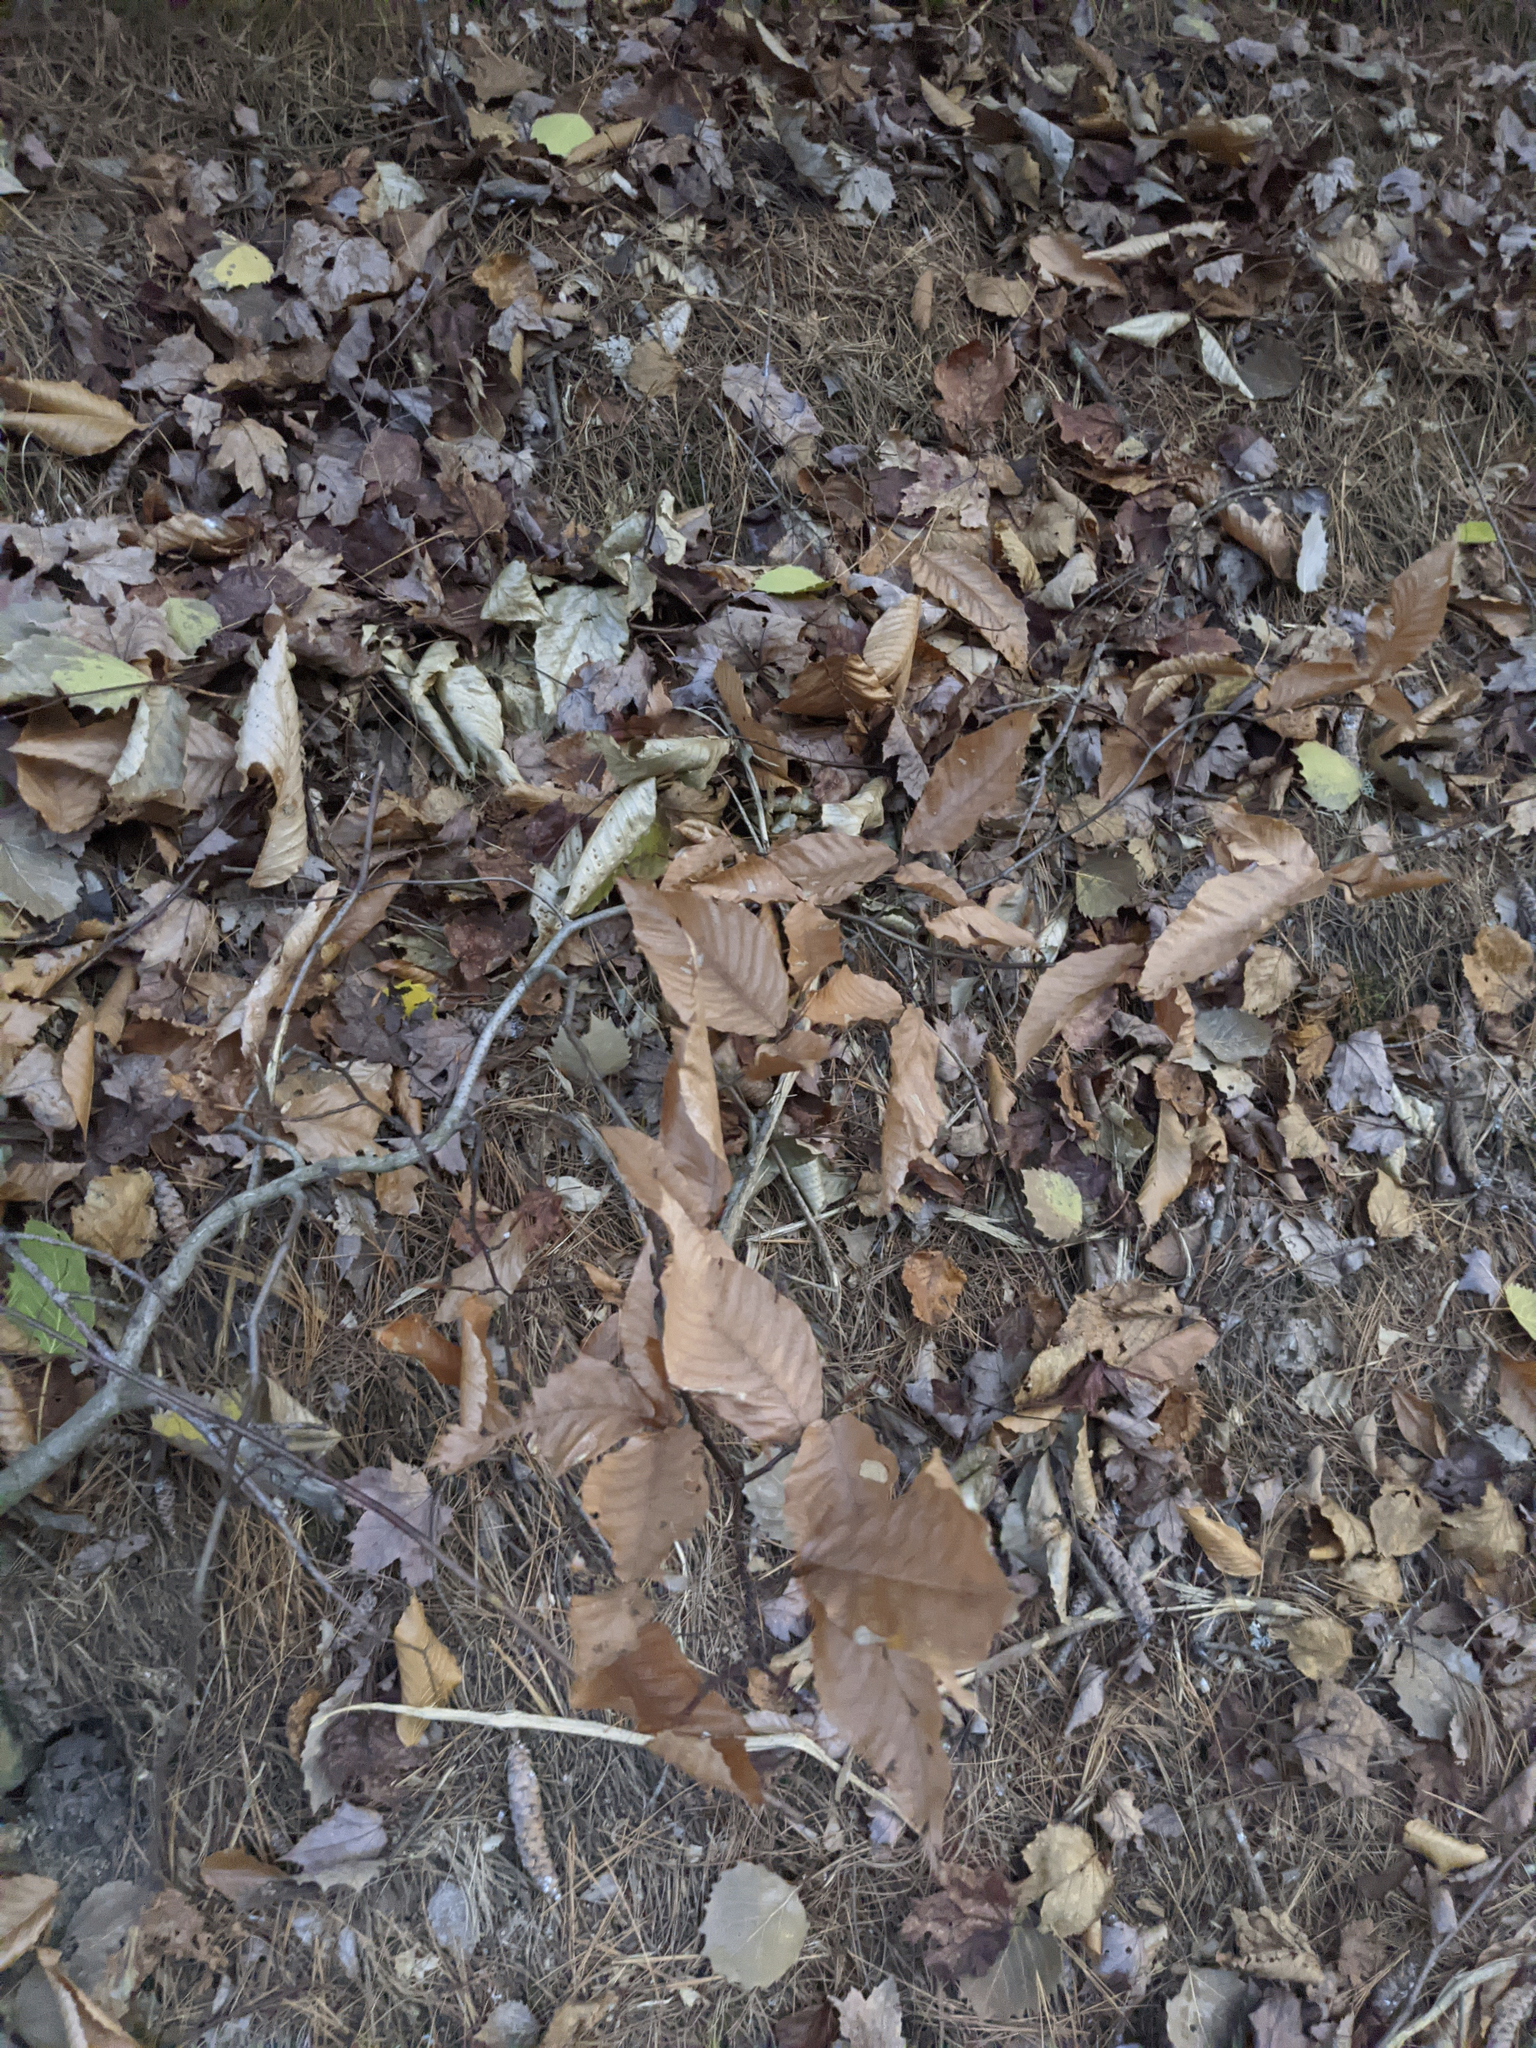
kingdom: Plantae
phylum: Tracheophyta
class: Magnoliopsida
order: Fagales
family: Fagaceae
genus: Fagus
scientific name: Fagus grandifolia
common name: American beech
